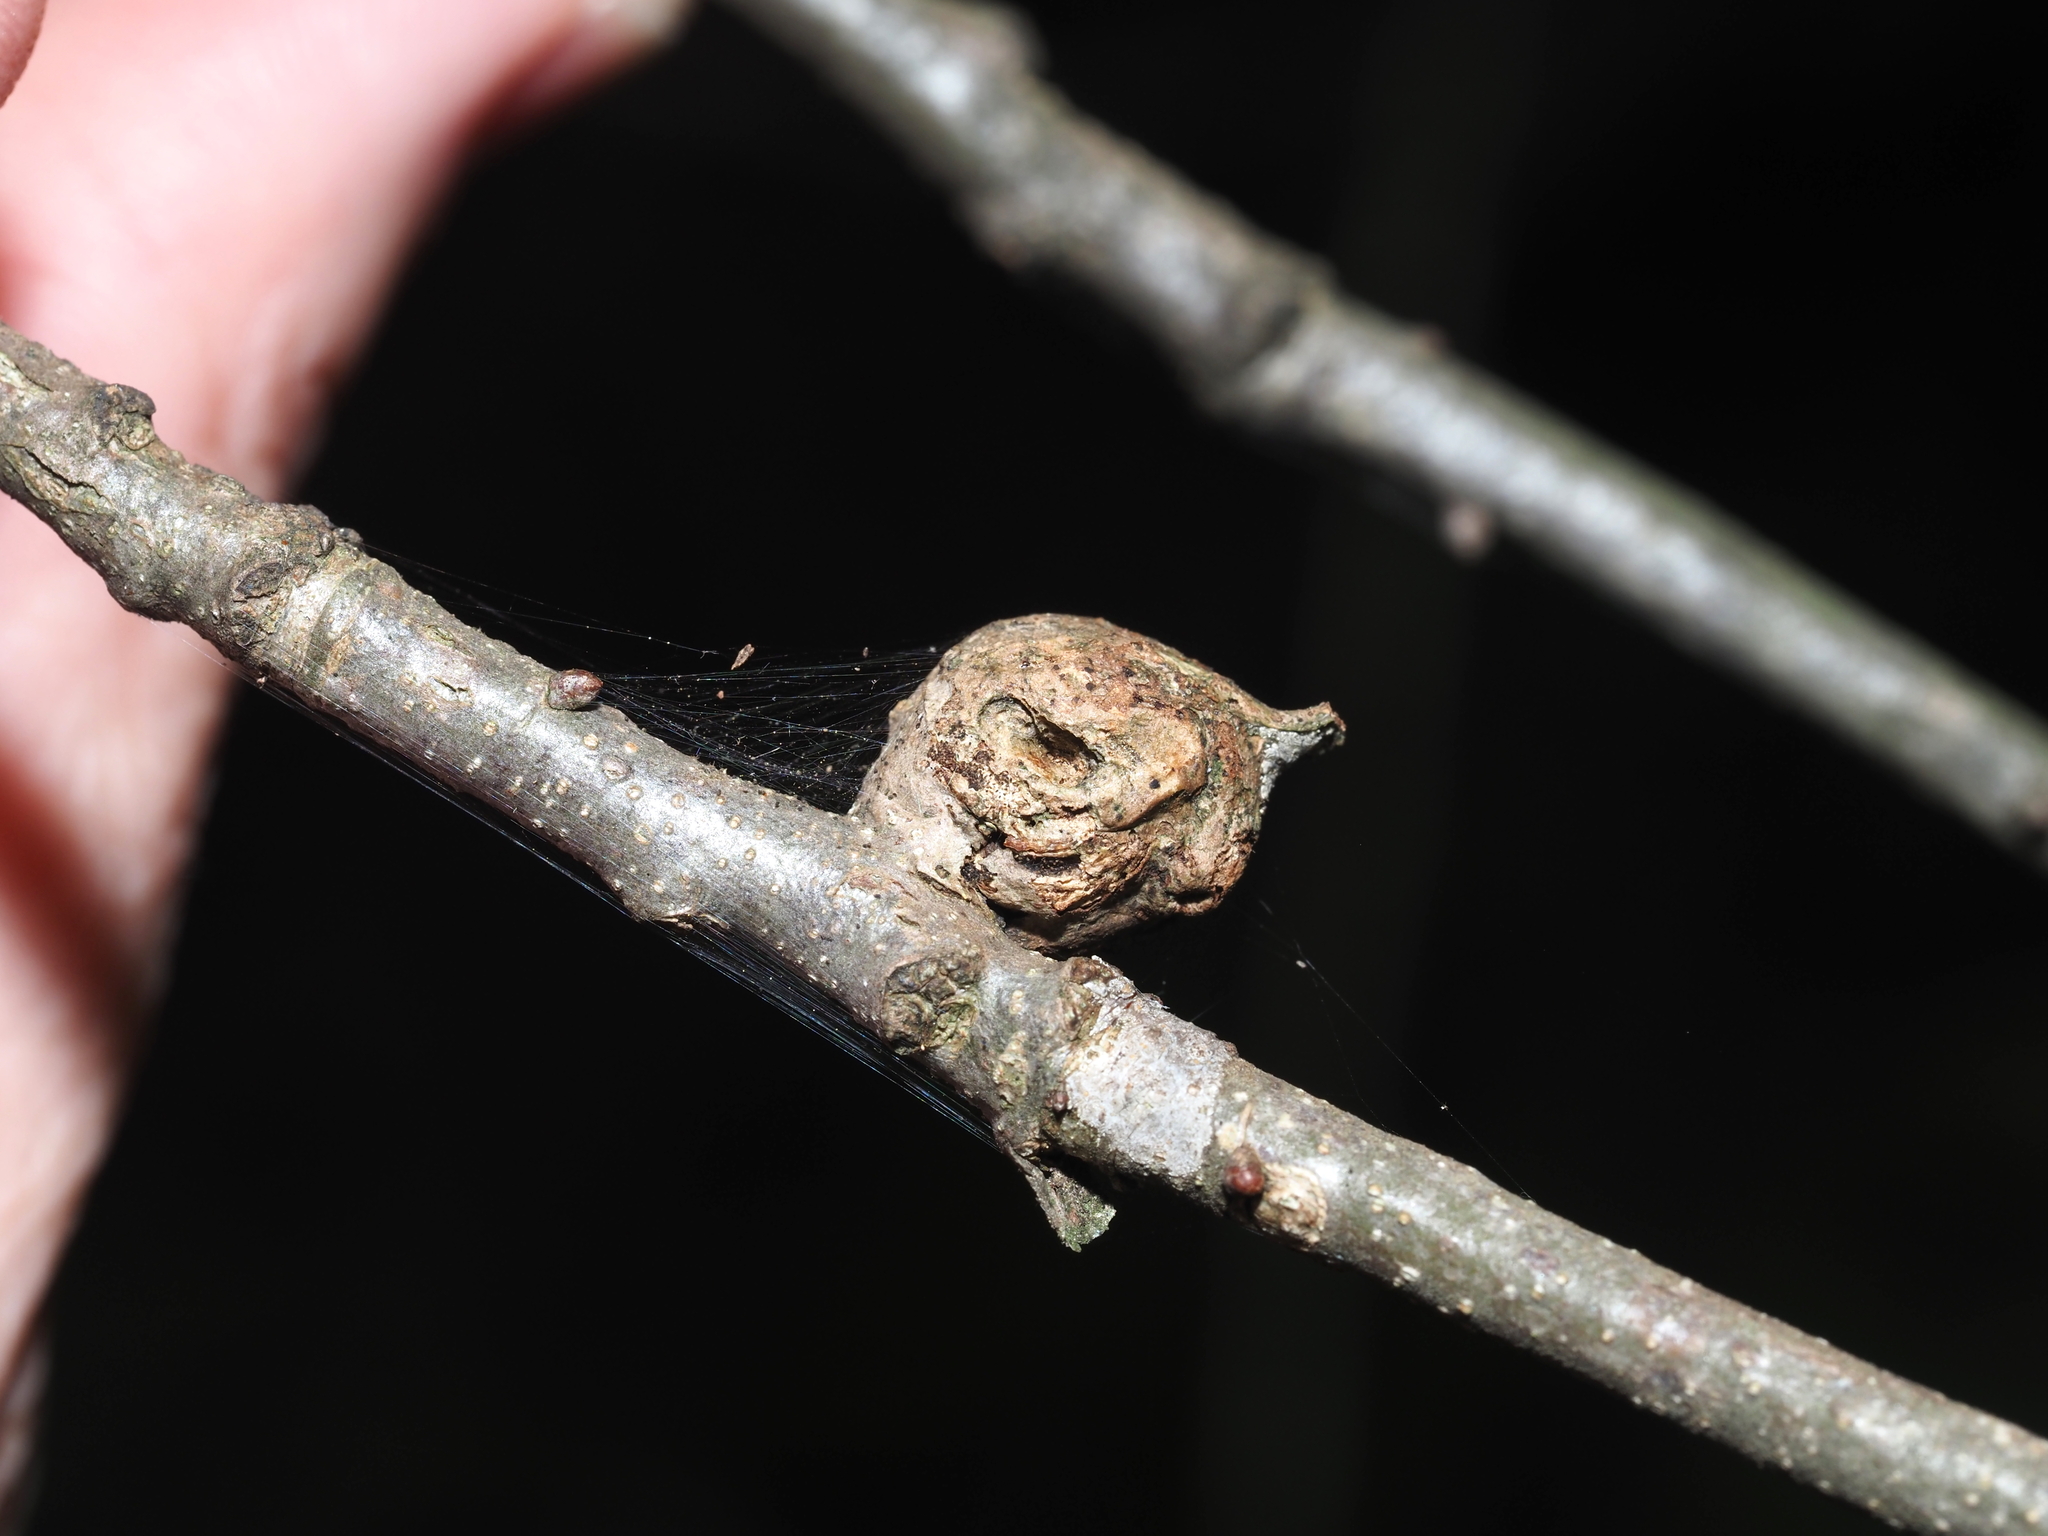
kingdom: Animalia
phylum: Arthropoda
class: Insecta
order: Hymenoptera
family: Cynipidae
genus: Andricus
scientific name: Andricus
